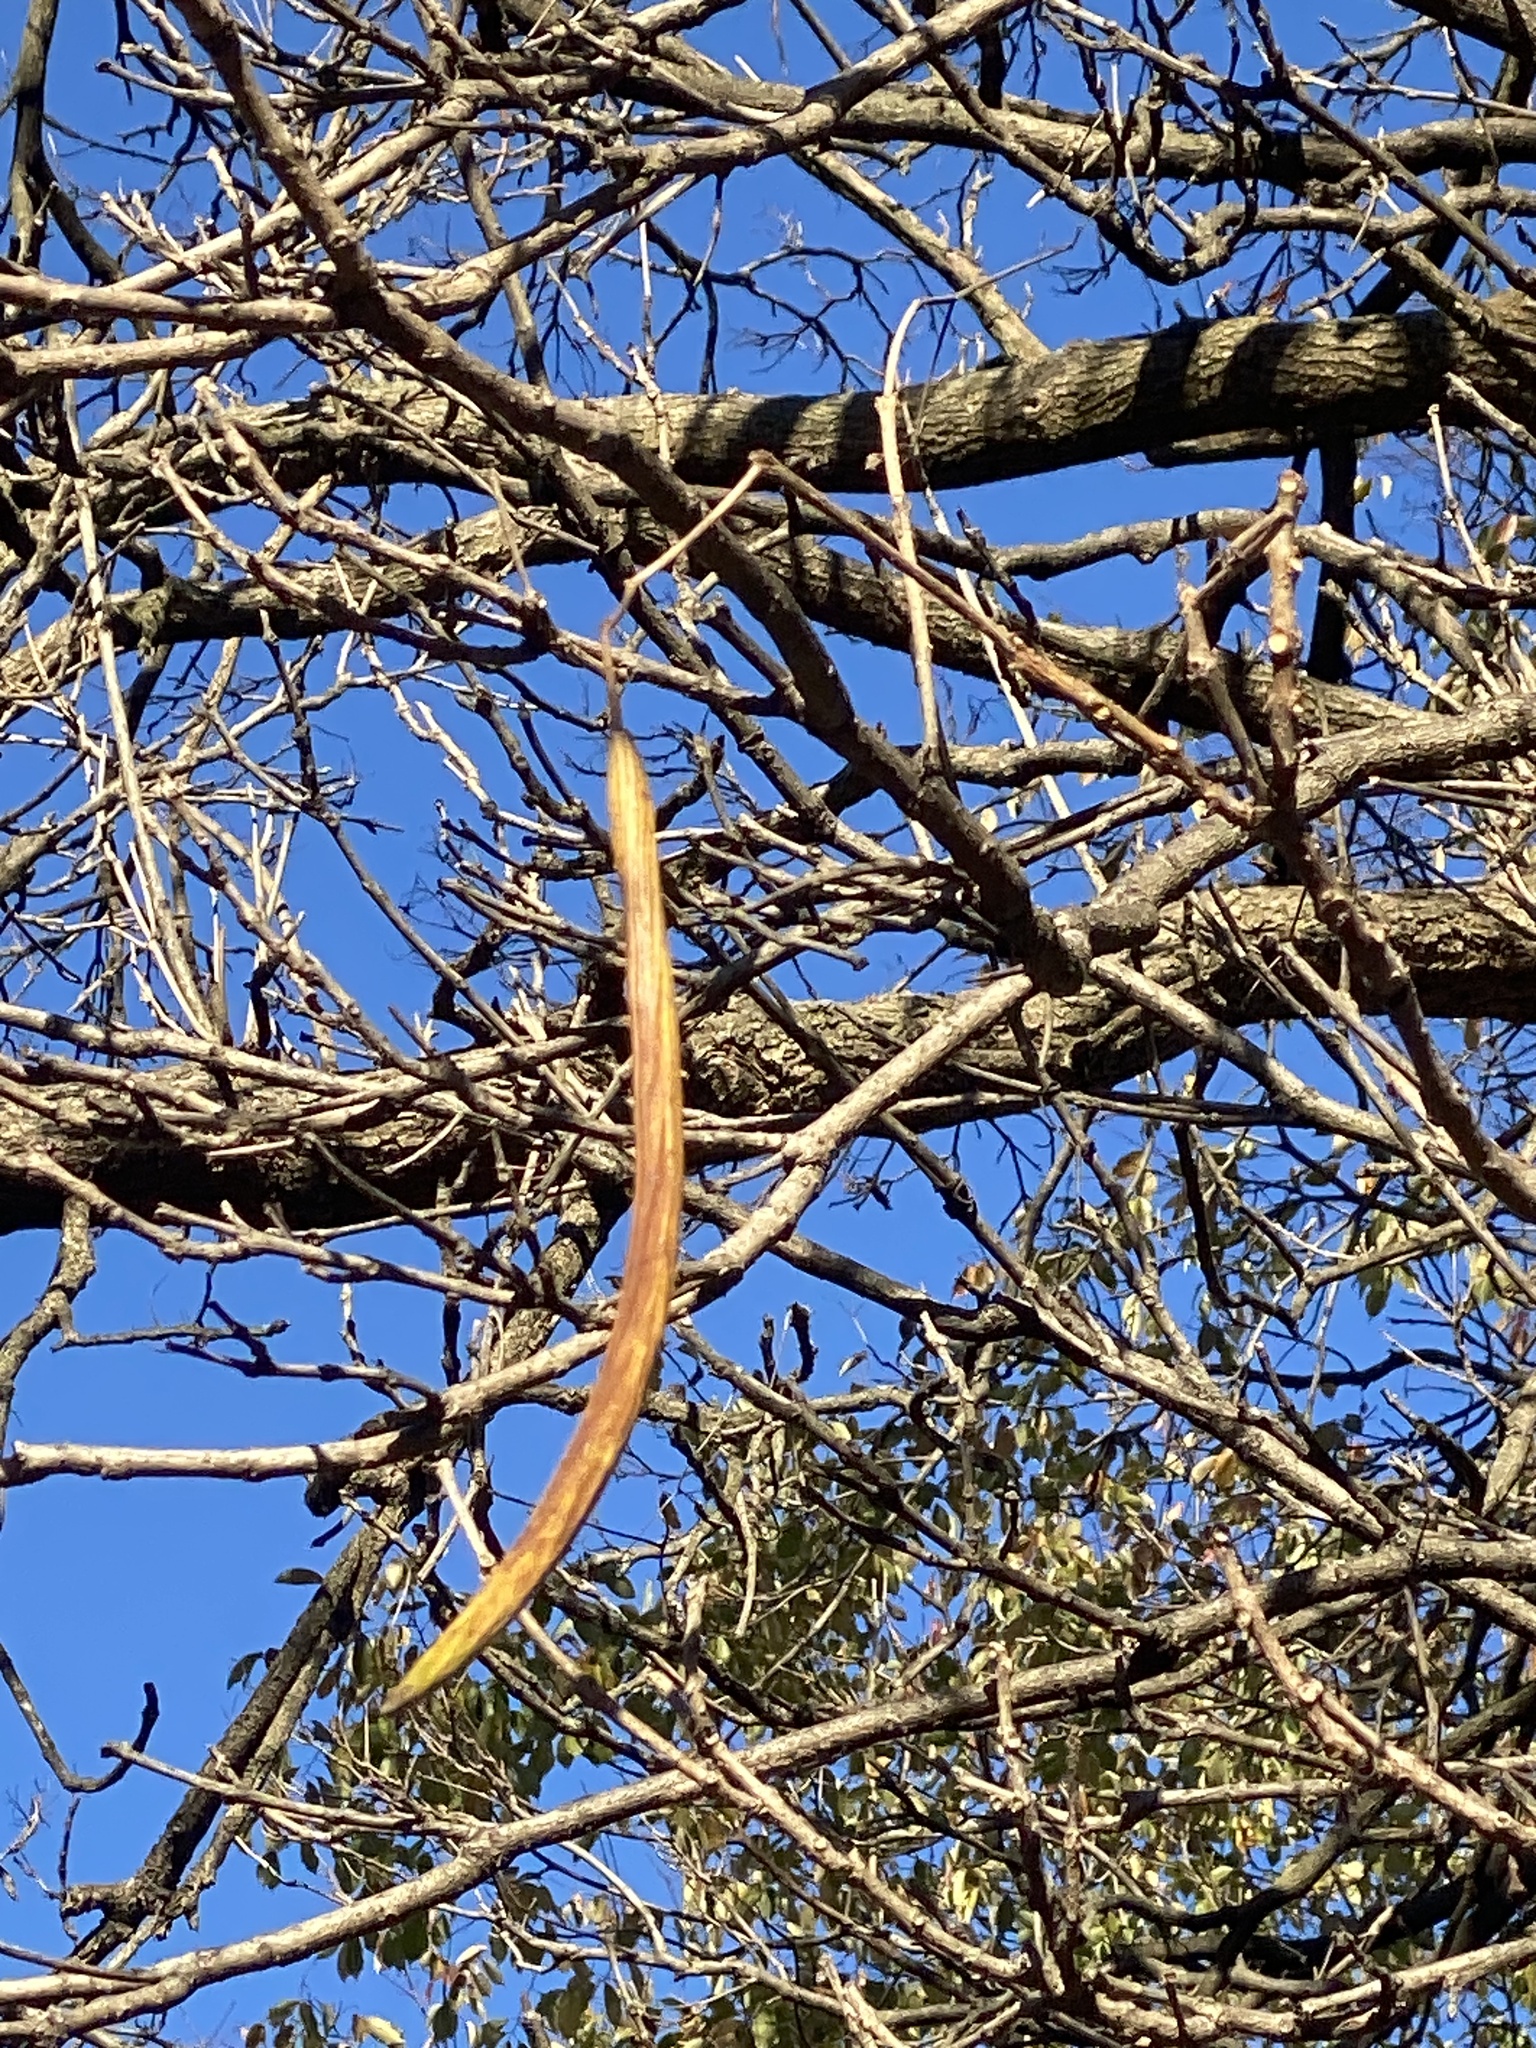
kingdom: Plantae
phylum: Tracheophyta
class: Magnoliopsida
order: Lamiales
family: Bignoniaceae
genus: Catalpa
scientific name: Catalpa
